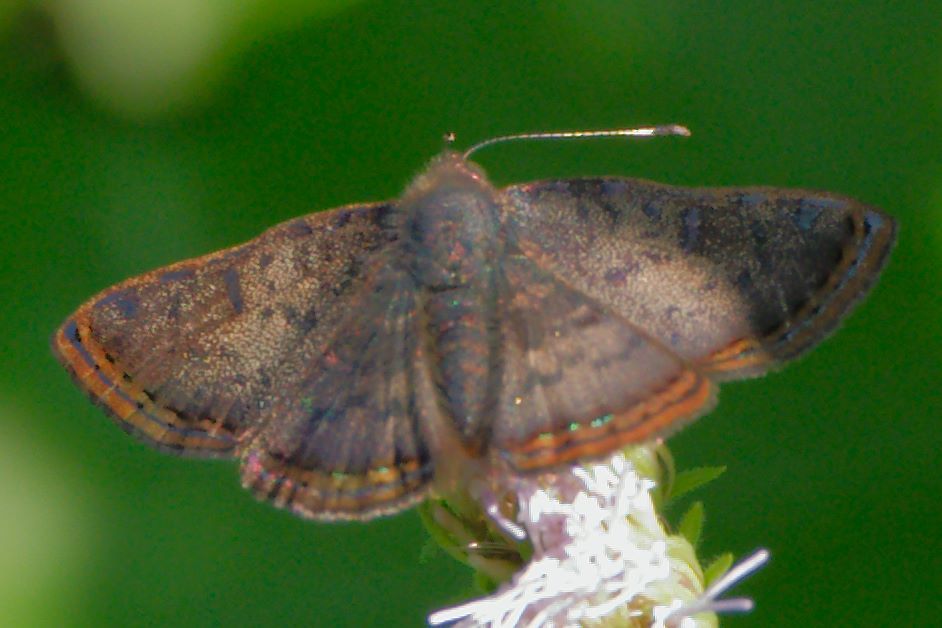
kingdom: Animalia
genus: Caria
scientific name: Caria ino
